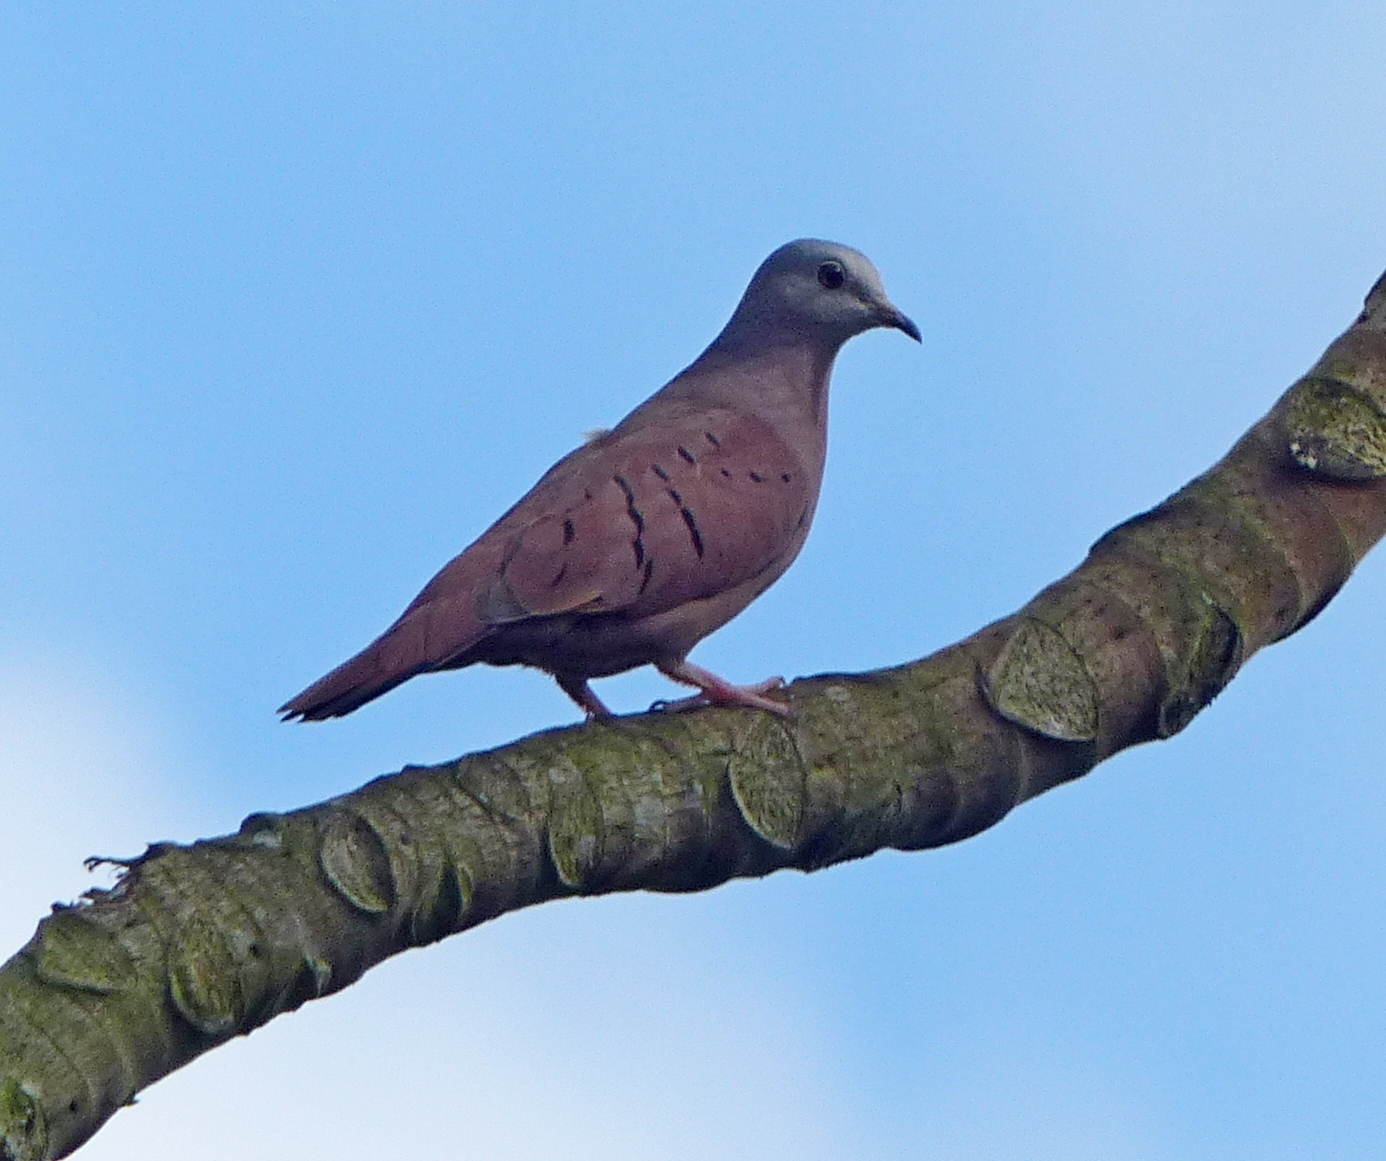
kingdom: Animalia
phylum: Chordata
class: Aves
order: Columbiformes
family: Columbidae
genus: Columbina
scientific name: Columbina talpacoti
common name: Ruddy ground dove
